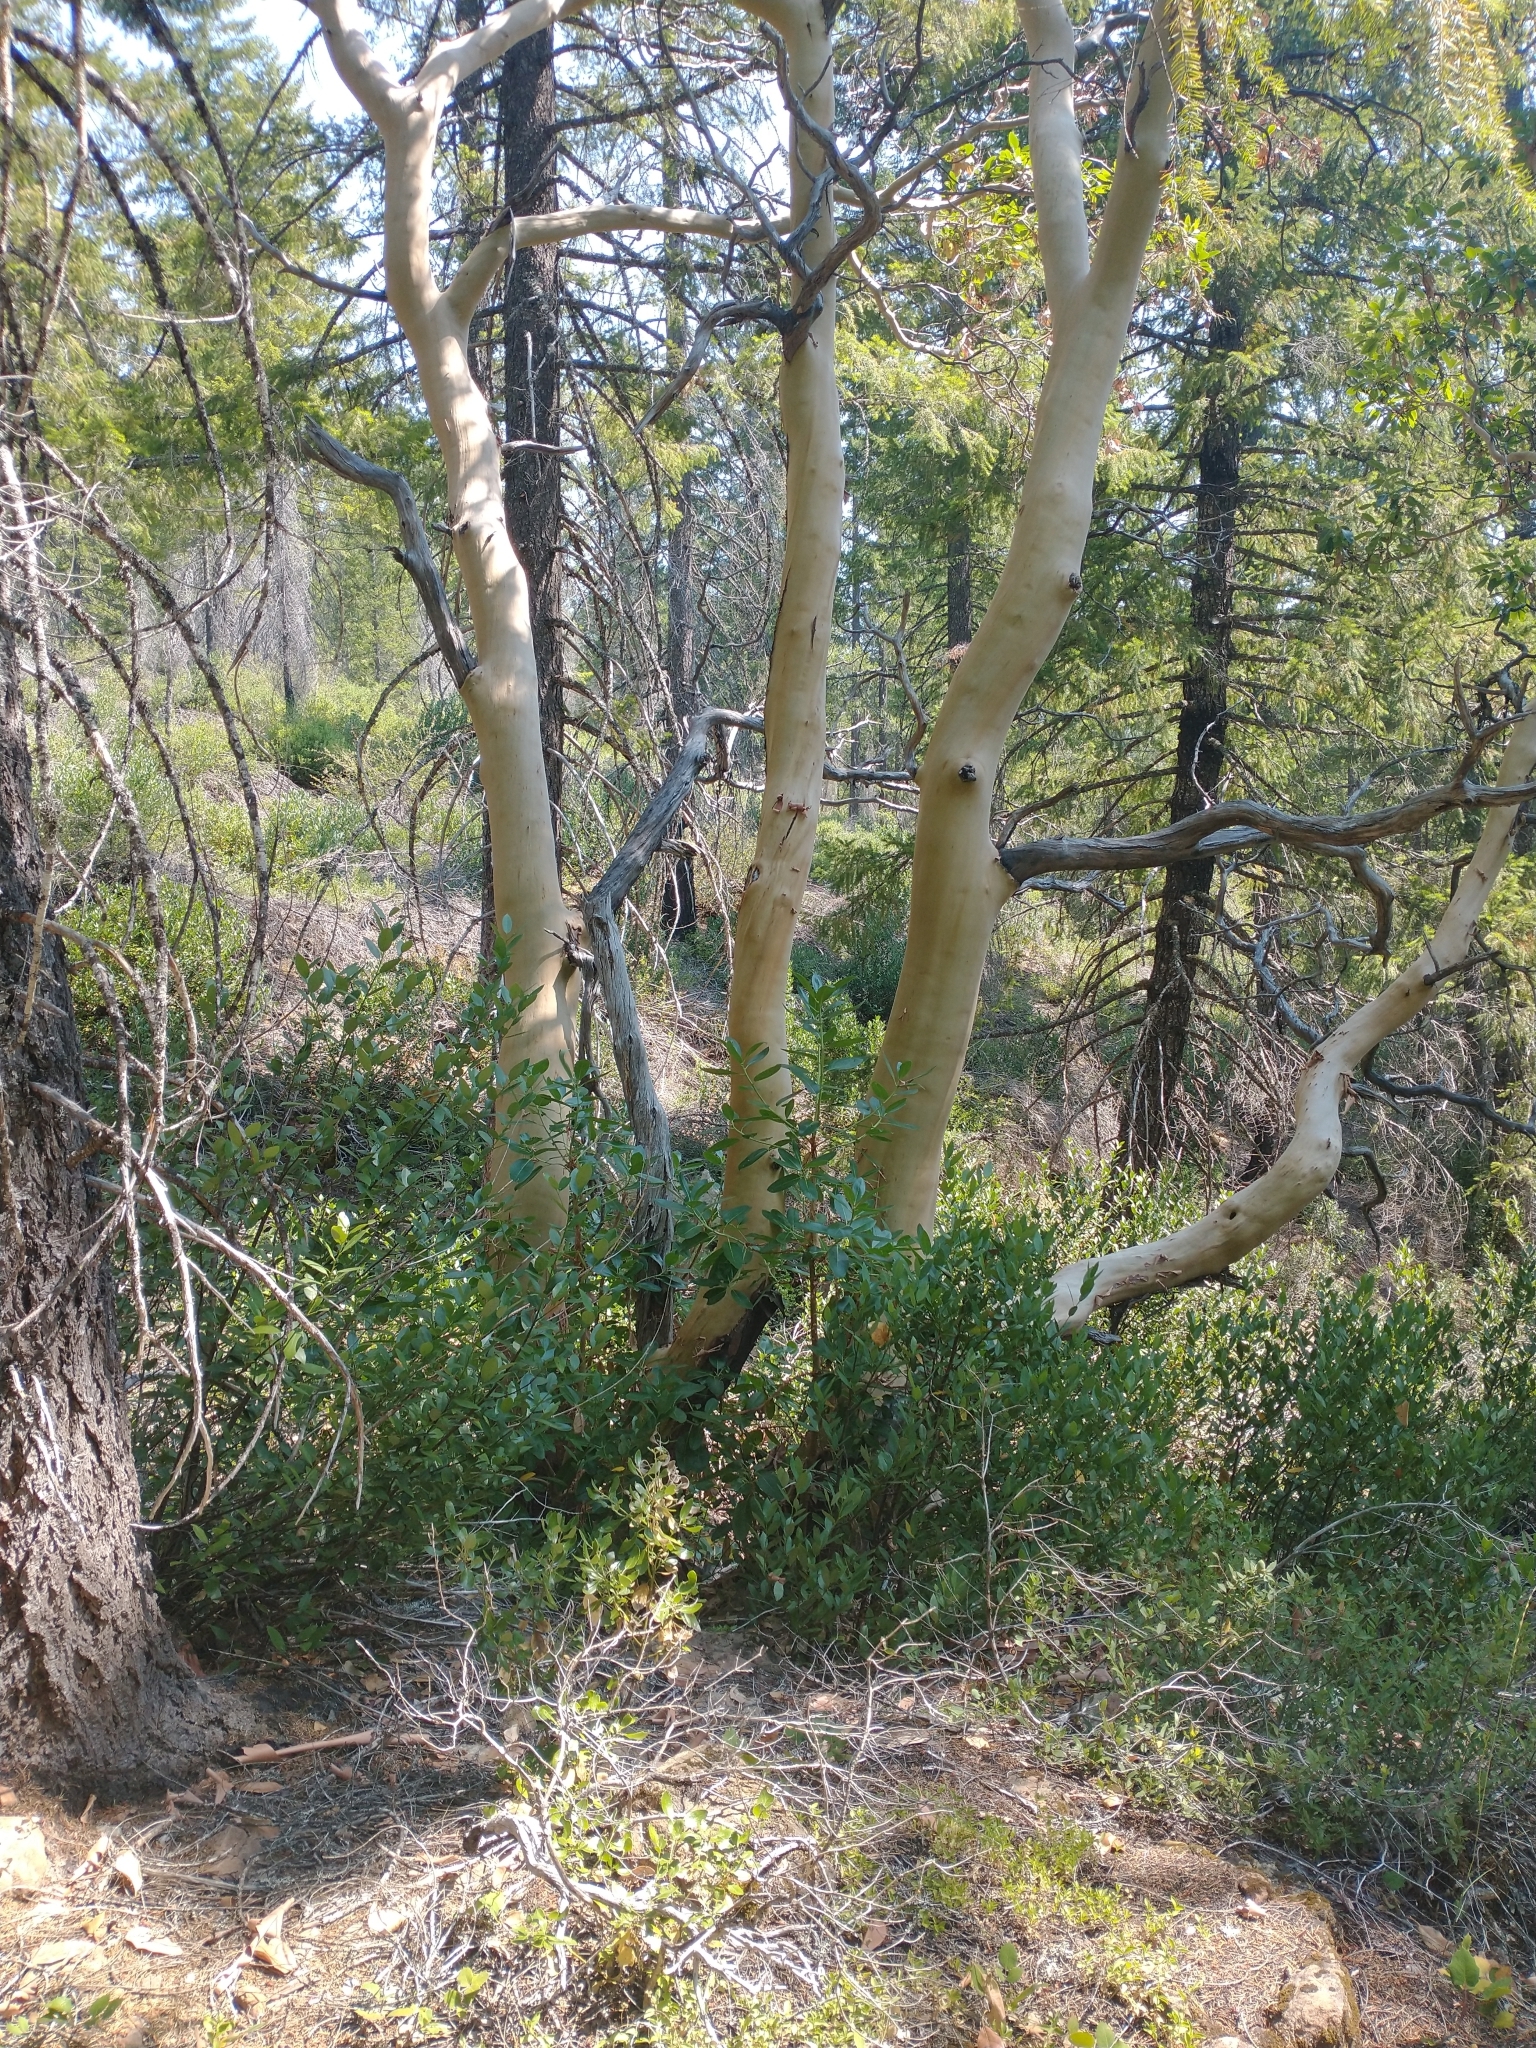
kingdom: Plantae
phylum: Tracheophyta
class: Magnoliopsida
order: Ericales
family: Ericaceae
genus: Arbutus
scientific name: Arbutus menziesii
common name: Pacific madrone
